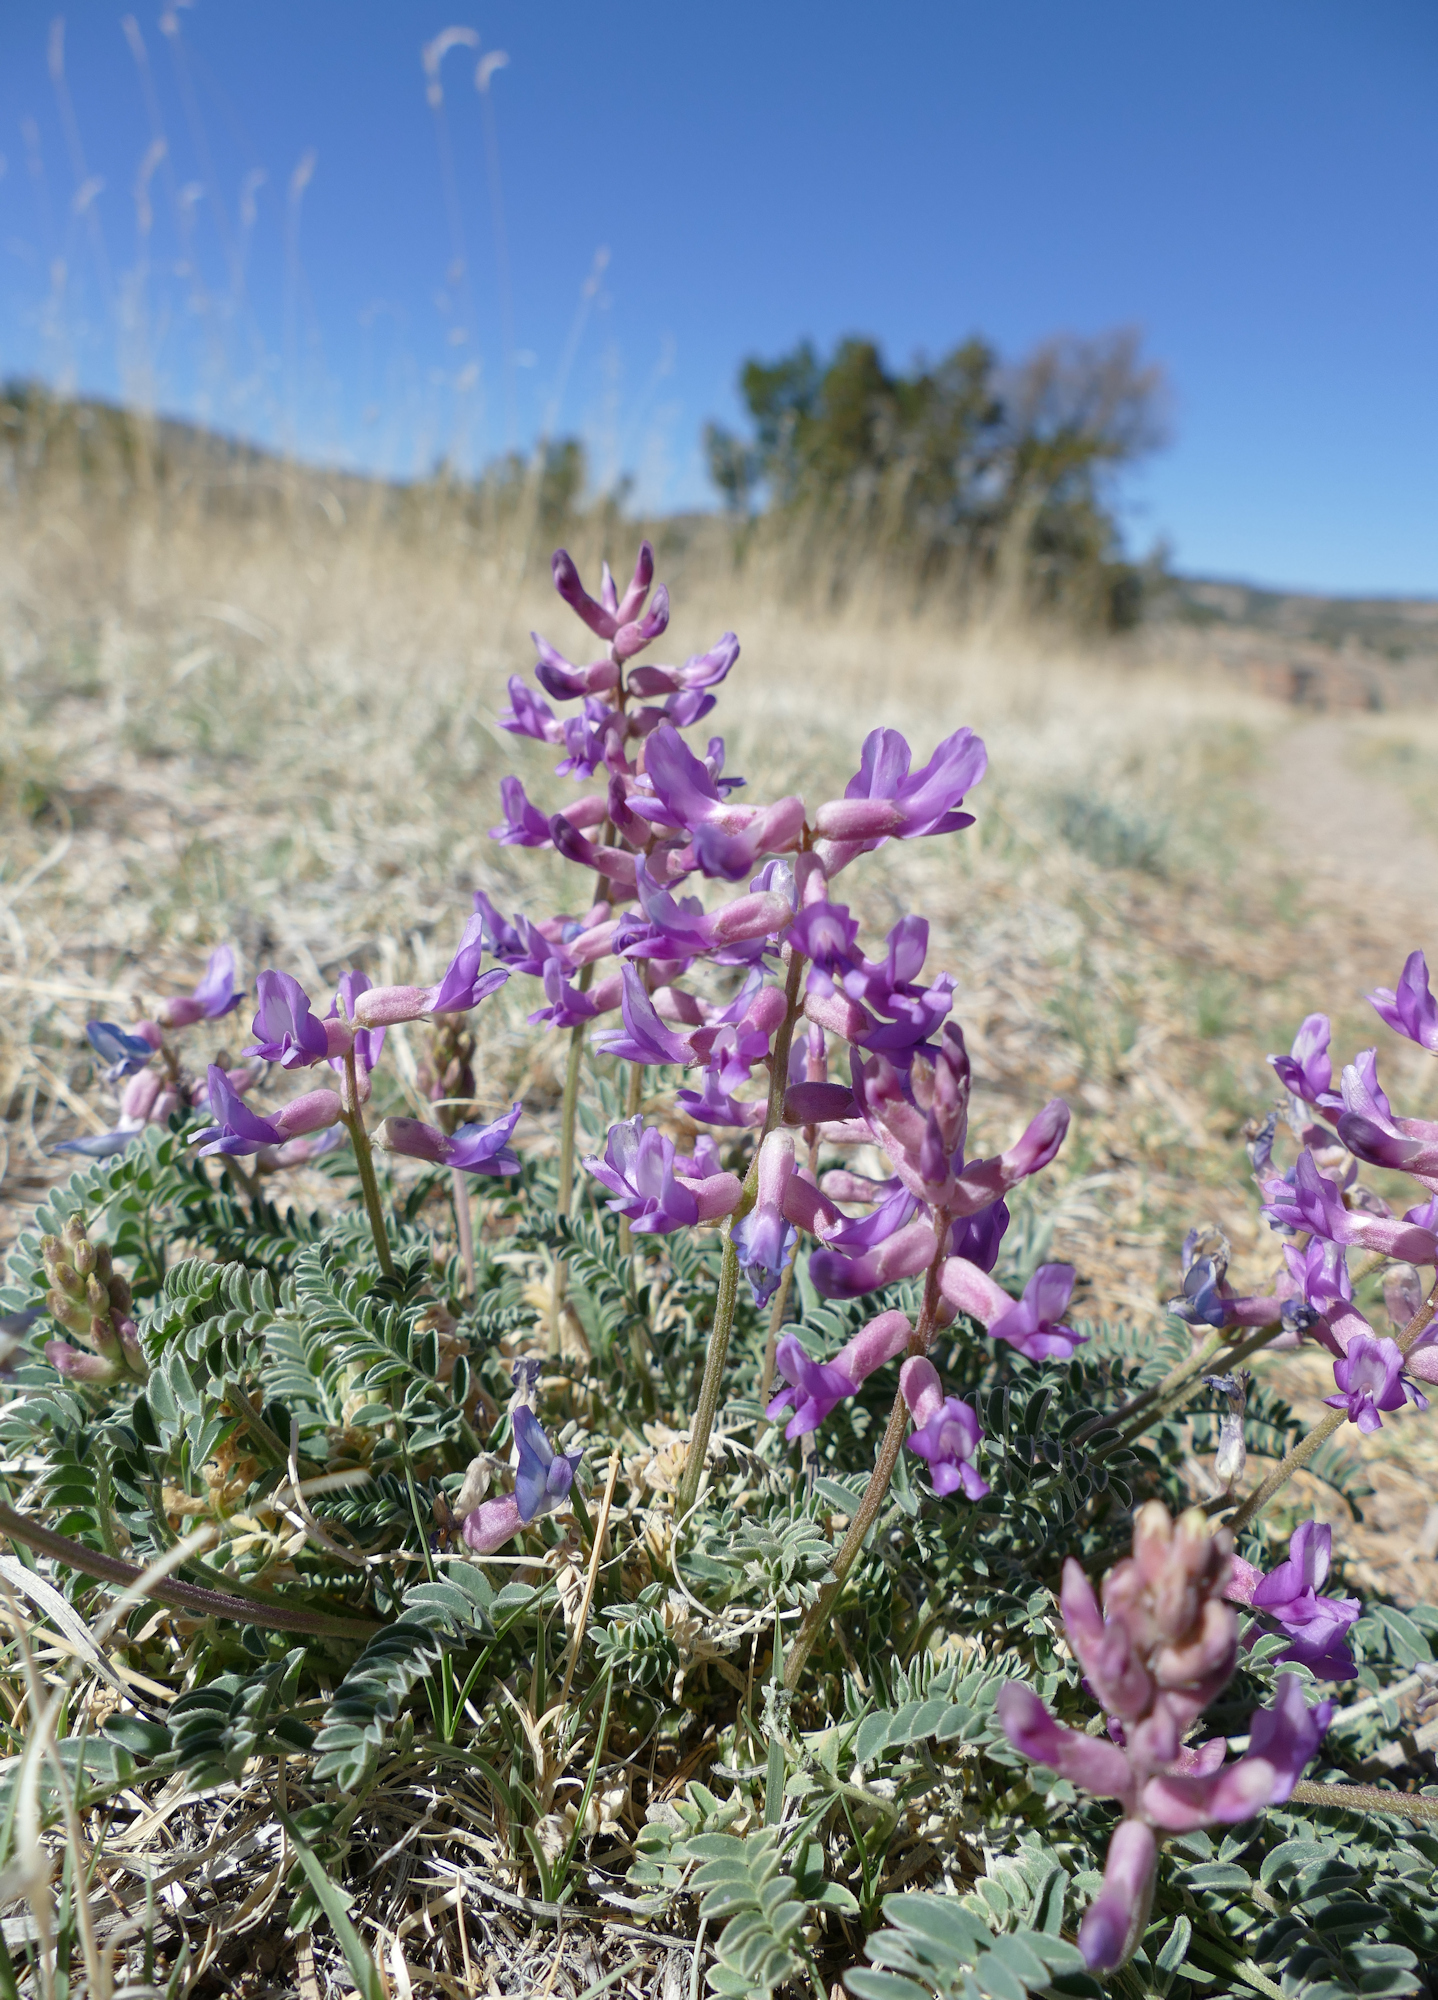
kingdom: Plantae
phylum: Tracheophyta
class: Magnoliopsida
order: Fabales
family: Fabaceae
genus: Astragalus
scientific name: Astragalus tephrodes
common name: Ashen milk-vetch
